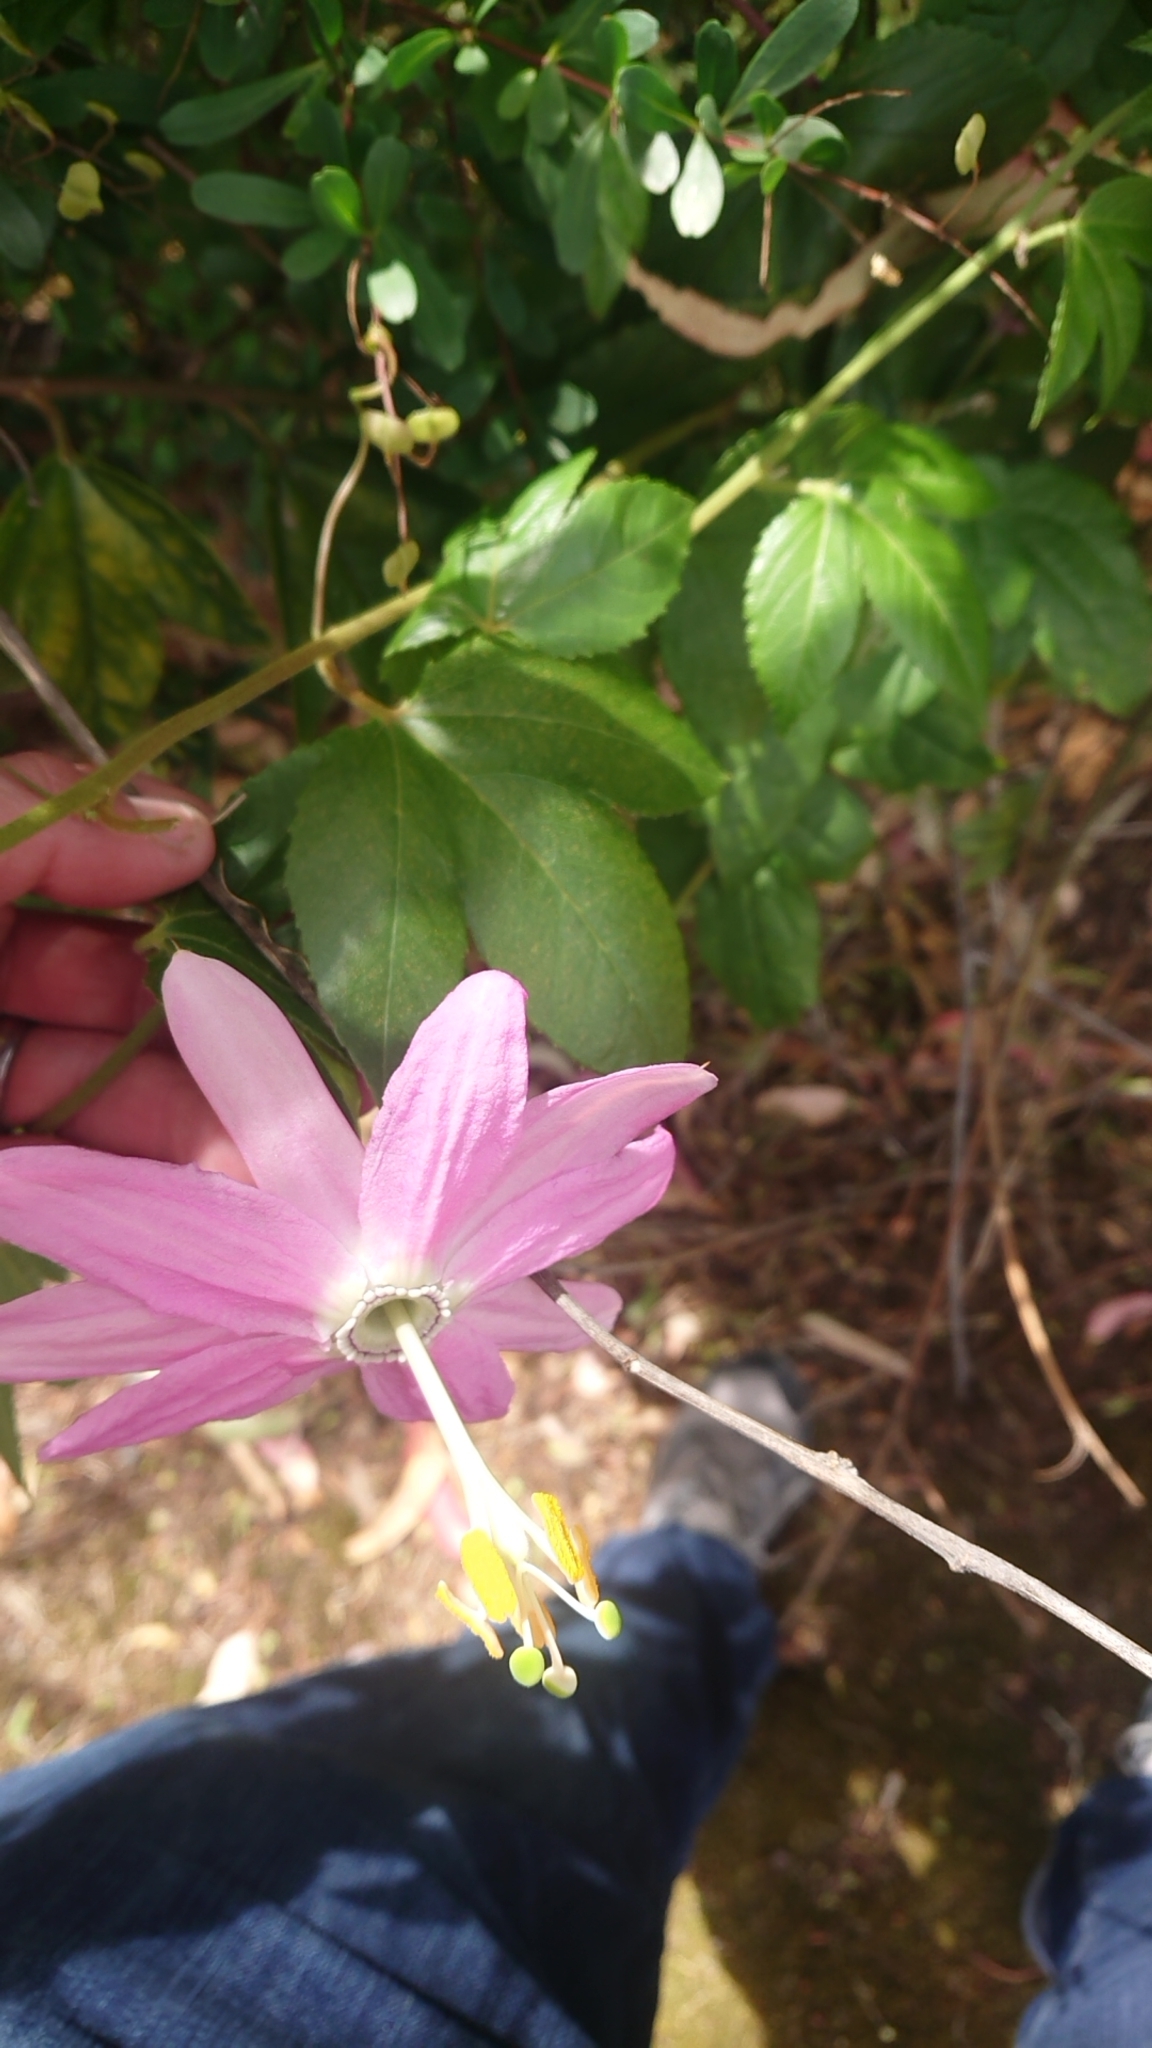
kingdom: Plantae
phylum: Tracheophyta
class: Magnoliopsida
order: Malpighiales
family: Passifloraceae
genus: Passiflora
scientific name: Passiflora tarminiana
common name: Banana poka
